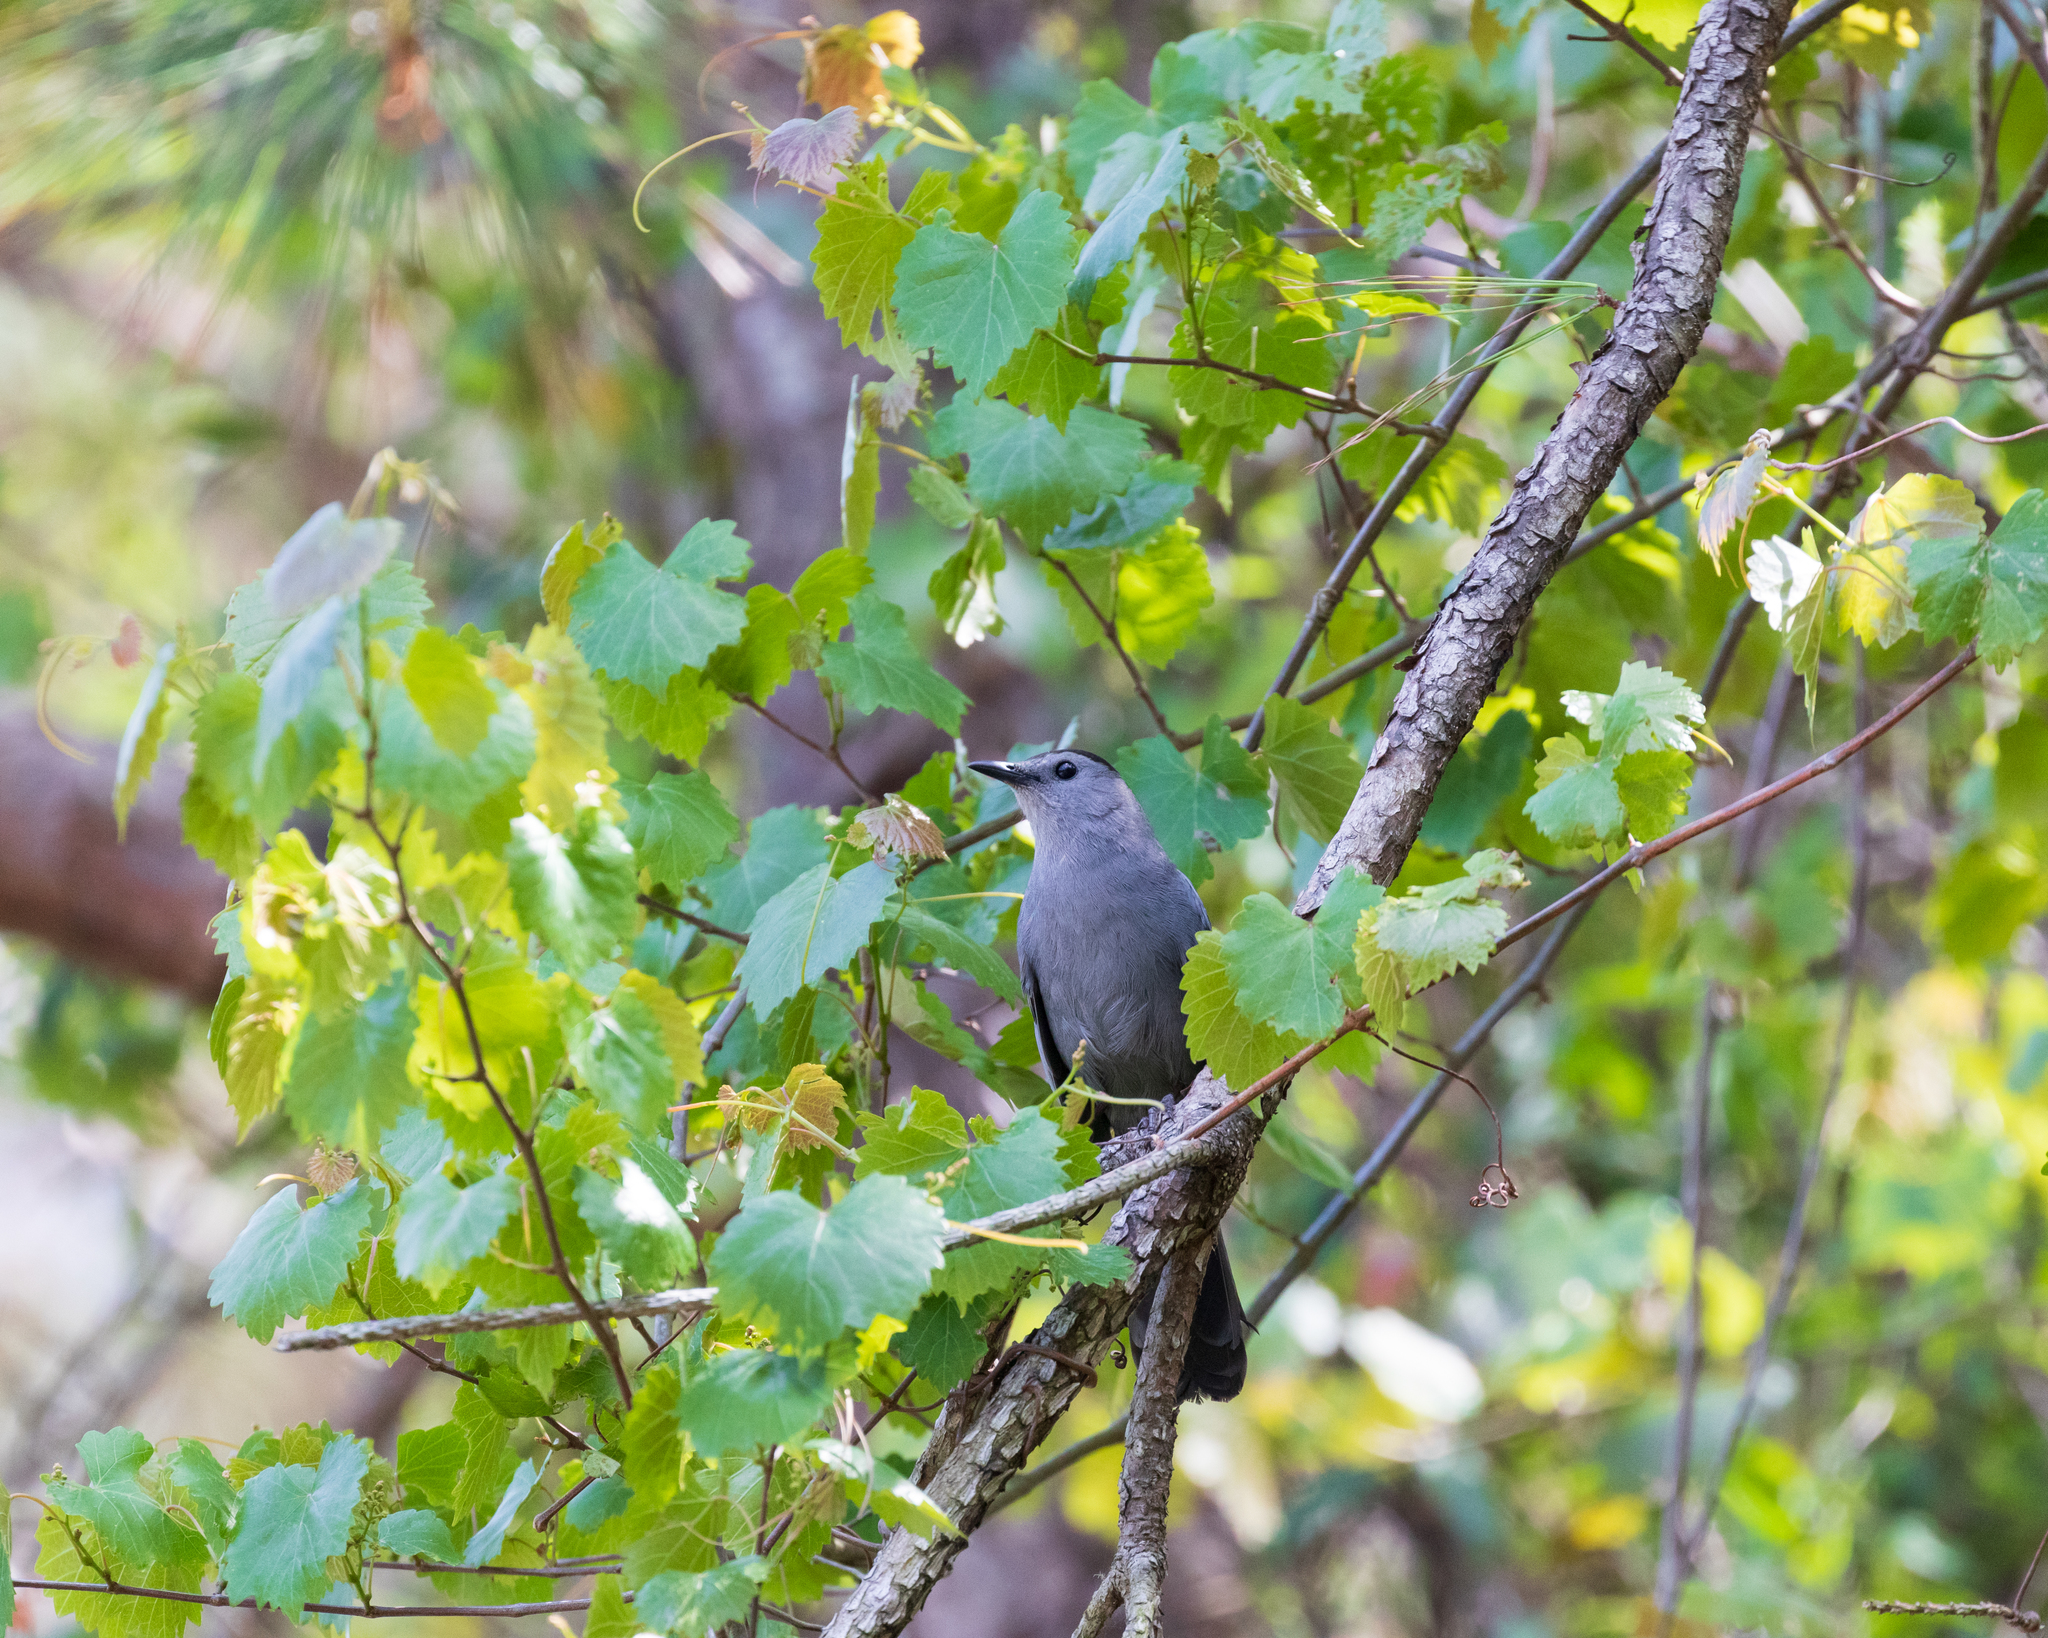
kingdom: Animalia
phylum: Chordata
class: Aves
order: Passeriformes
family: Mimidae
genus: Dumetella
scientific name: Dumetella carolinensis
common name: Gray catbird
